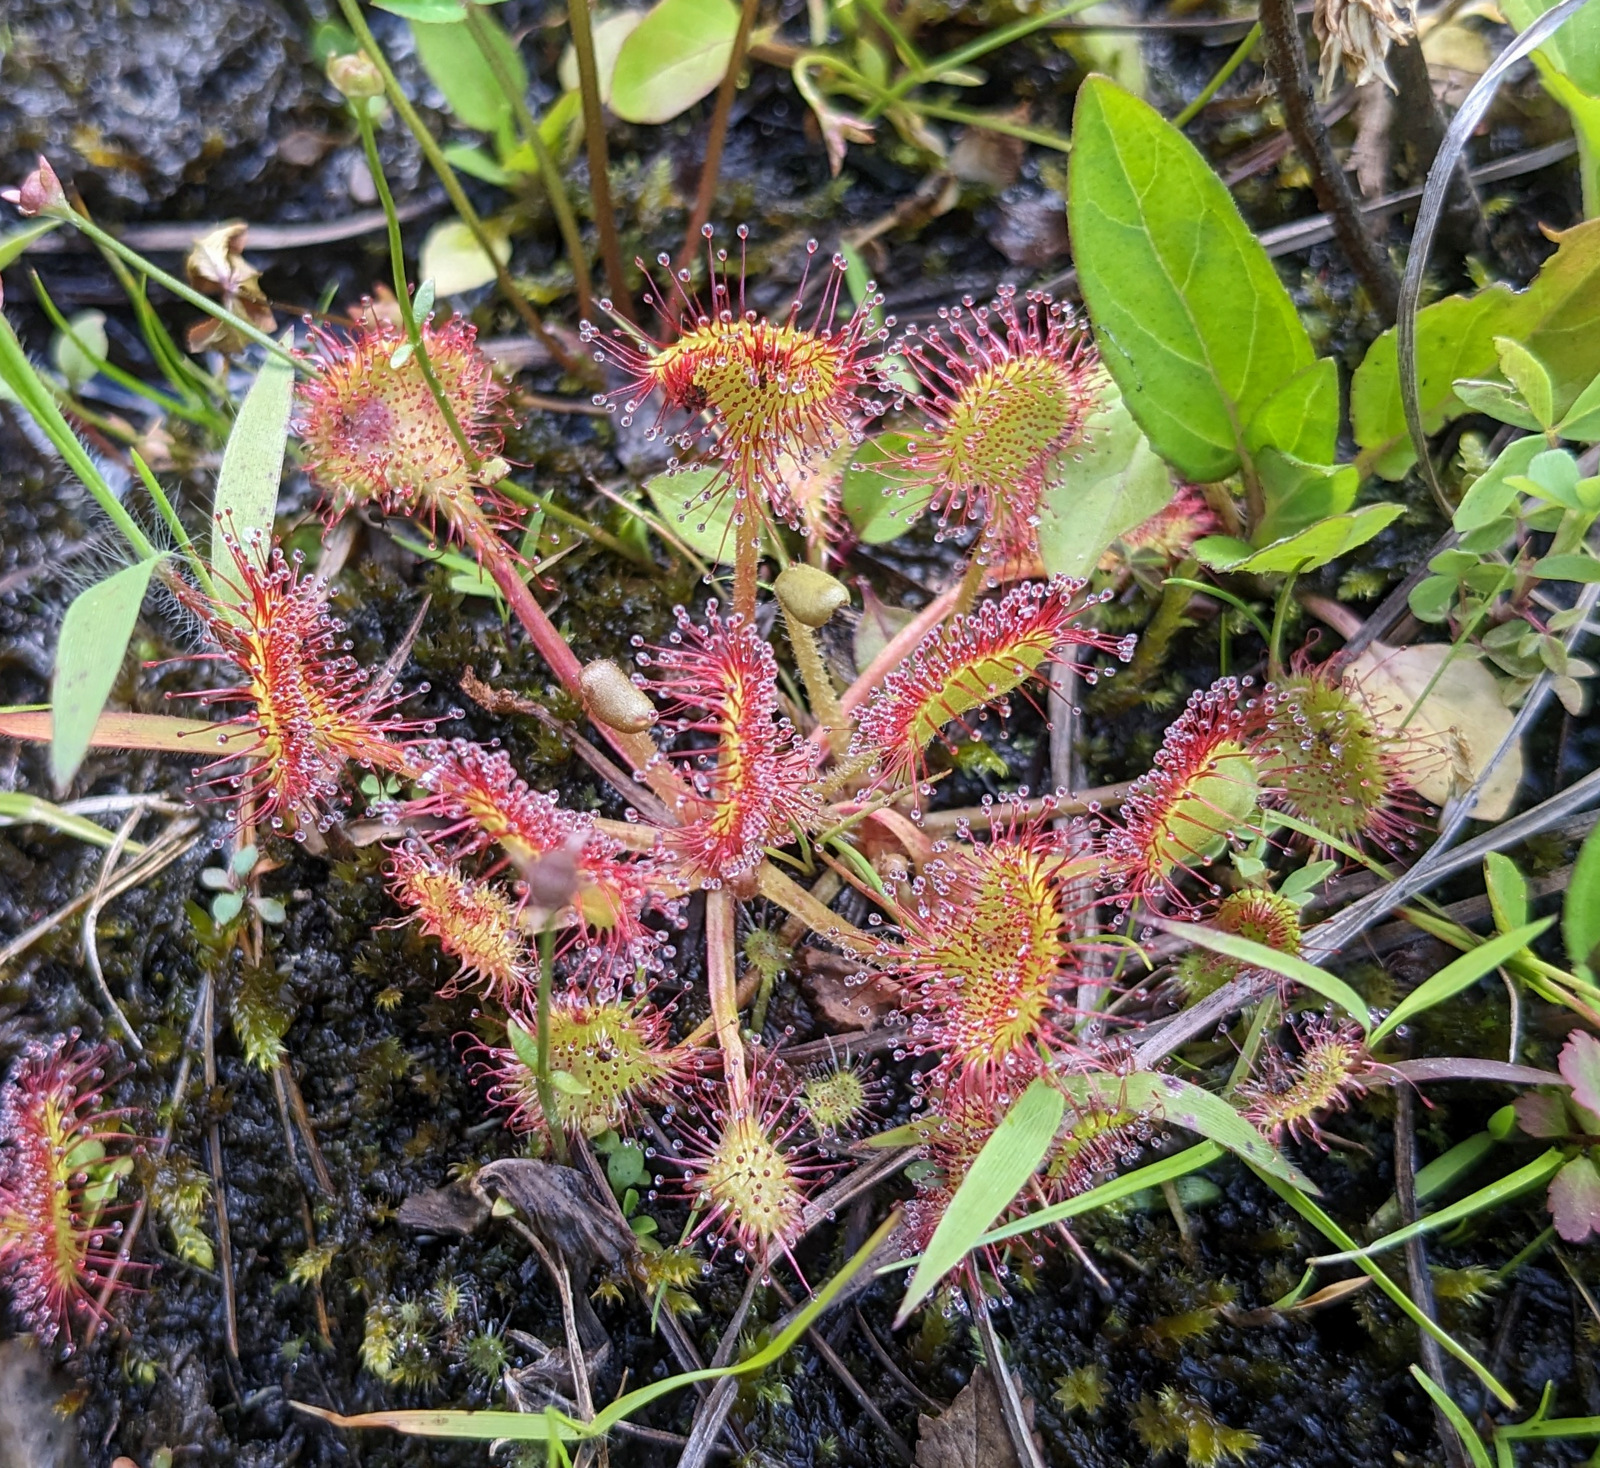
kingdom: Plantae
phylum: Tracheophyta
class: Magnoliopsida
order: Caryophyllales
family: Droseraceae
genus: Drosera
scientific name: Drosera rotundifolia
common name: Round-leaved sundew
